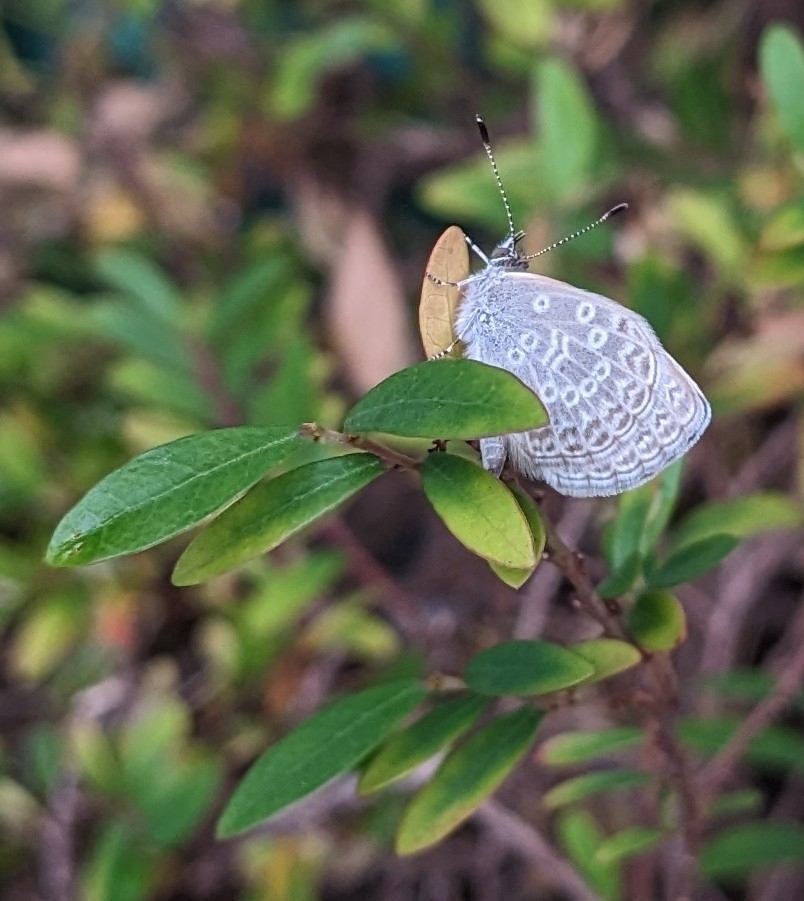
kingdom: Animalia
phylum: Arthropoda
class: Insecta
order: Lepidoptera
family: Lycaenidae
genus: Pseudozizeeria
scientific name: Pseudozizeeria maha
